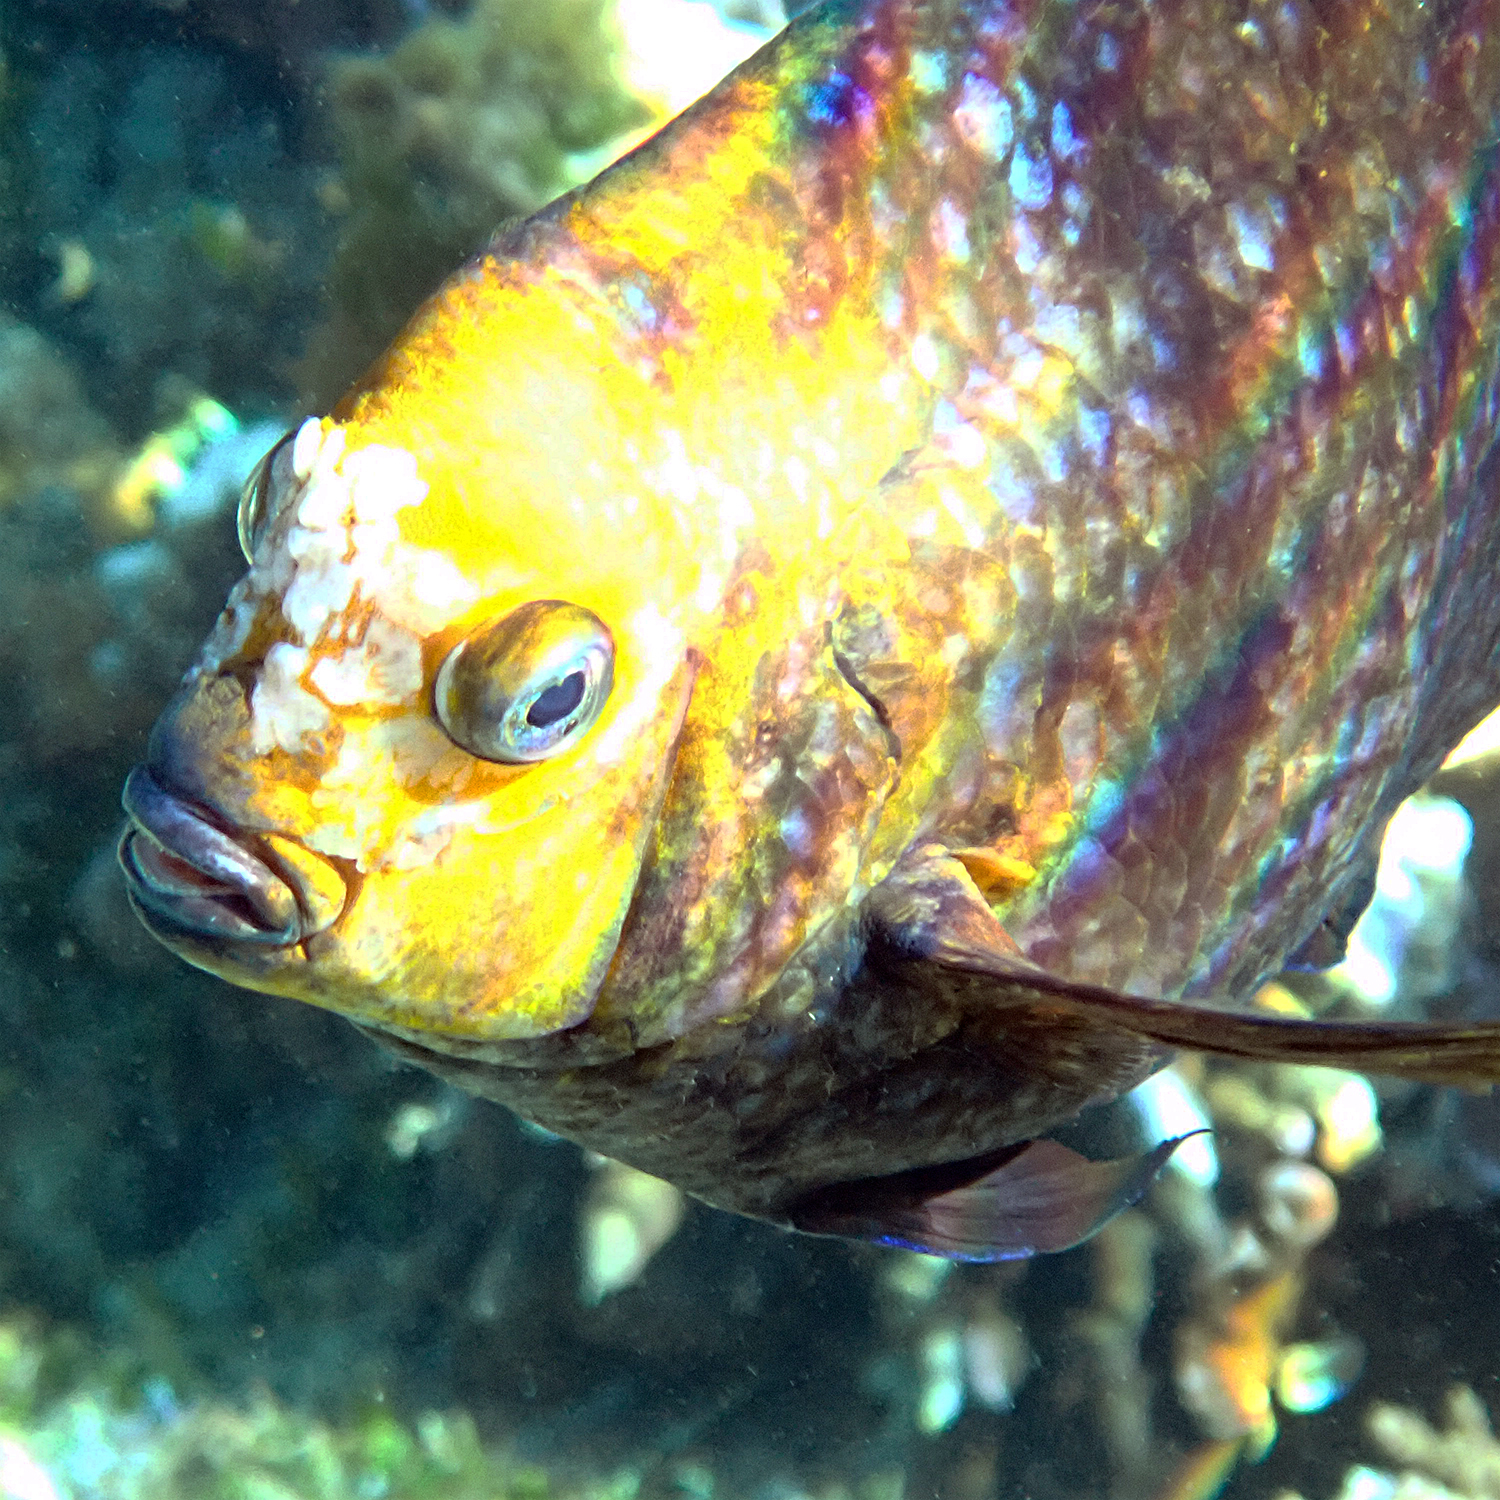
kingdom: Animalia
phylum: Chordata
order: Perciformes
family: Pomacentridae
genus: Parma
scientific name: Parma polylepis
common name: Banded parma
